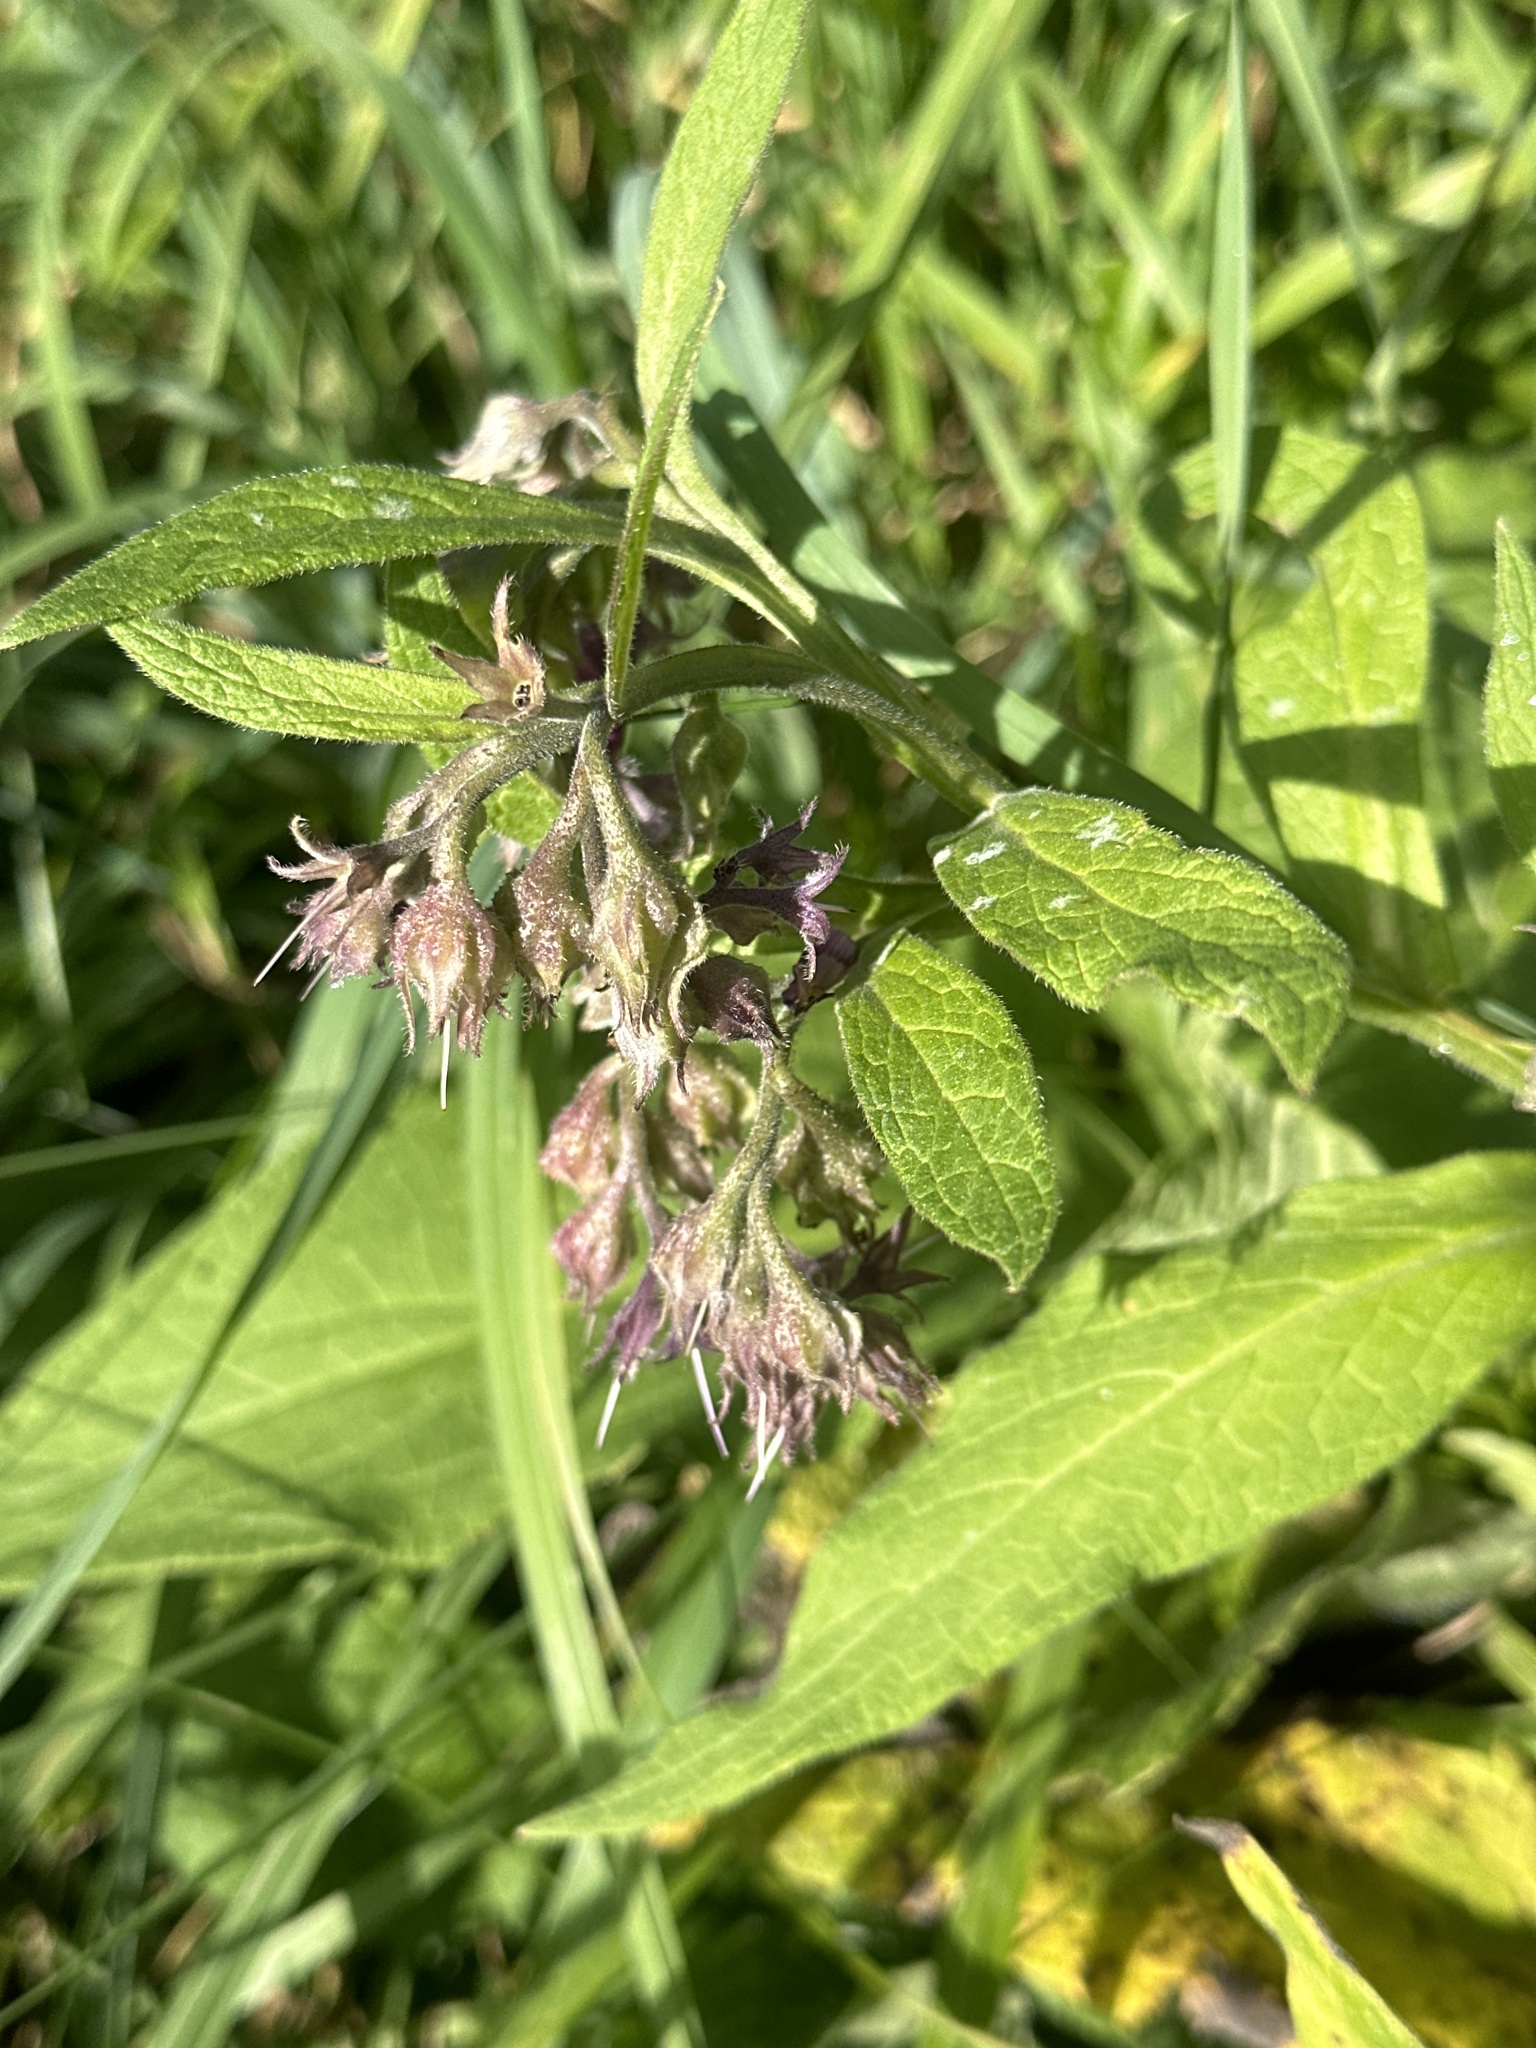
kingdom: Plantae
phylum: Tracheophyta
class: Magnoliopsida
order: Boraginales
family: Boraginaceae
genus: Symphytum
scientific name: Symphytum officinale
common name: Common comfrey
